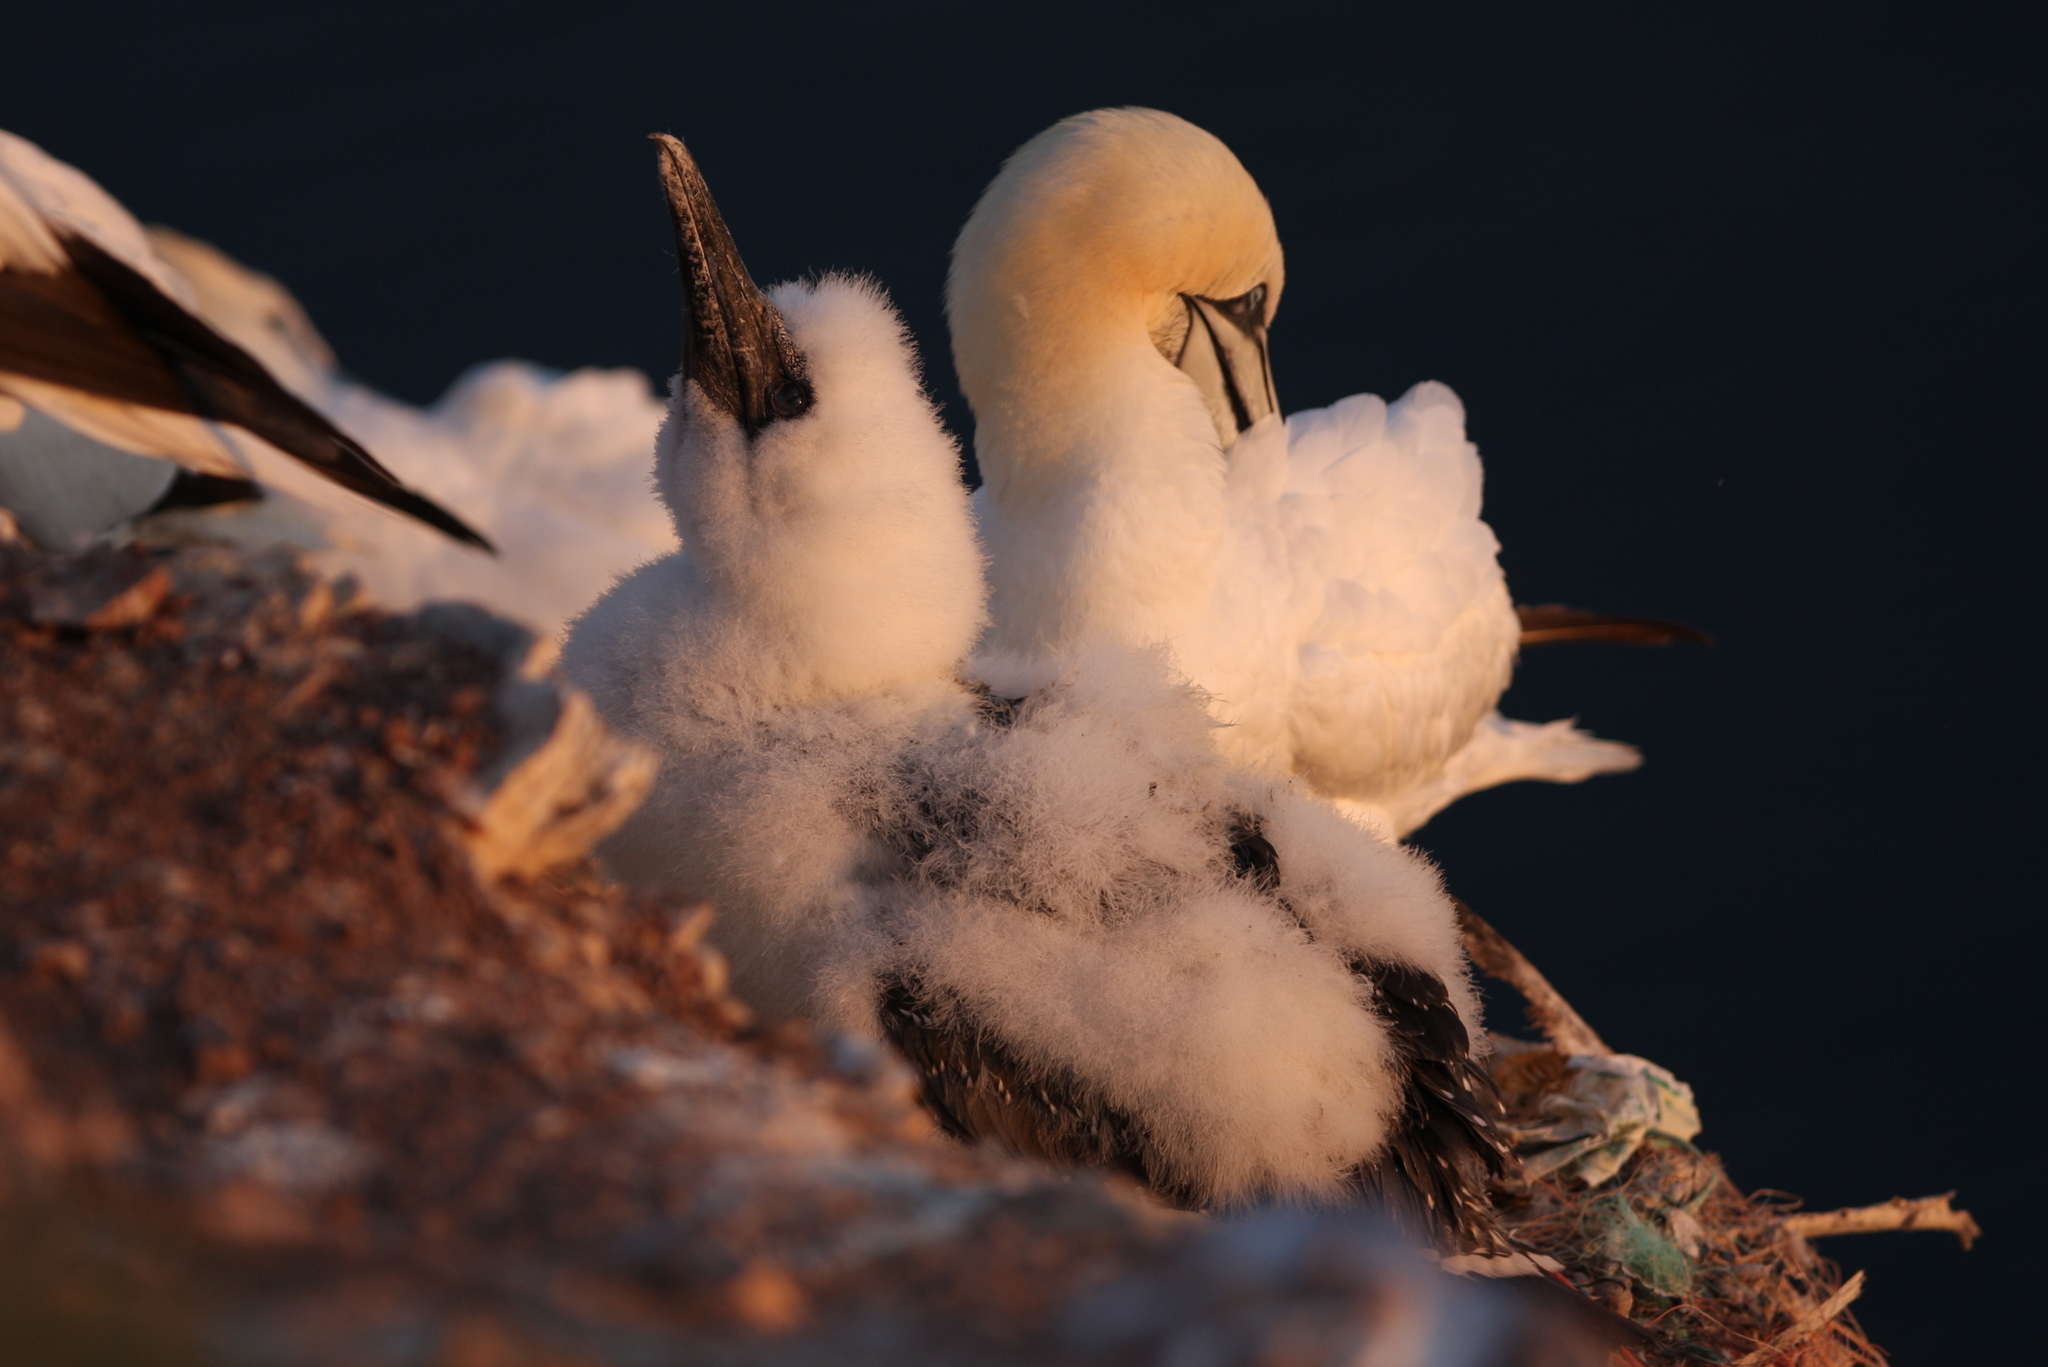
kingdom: Animalia
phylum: Chordata
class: Aves
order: Suliformes
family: Sulidae
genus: Morus
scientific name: Morus bassanus
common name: Northern gannet
